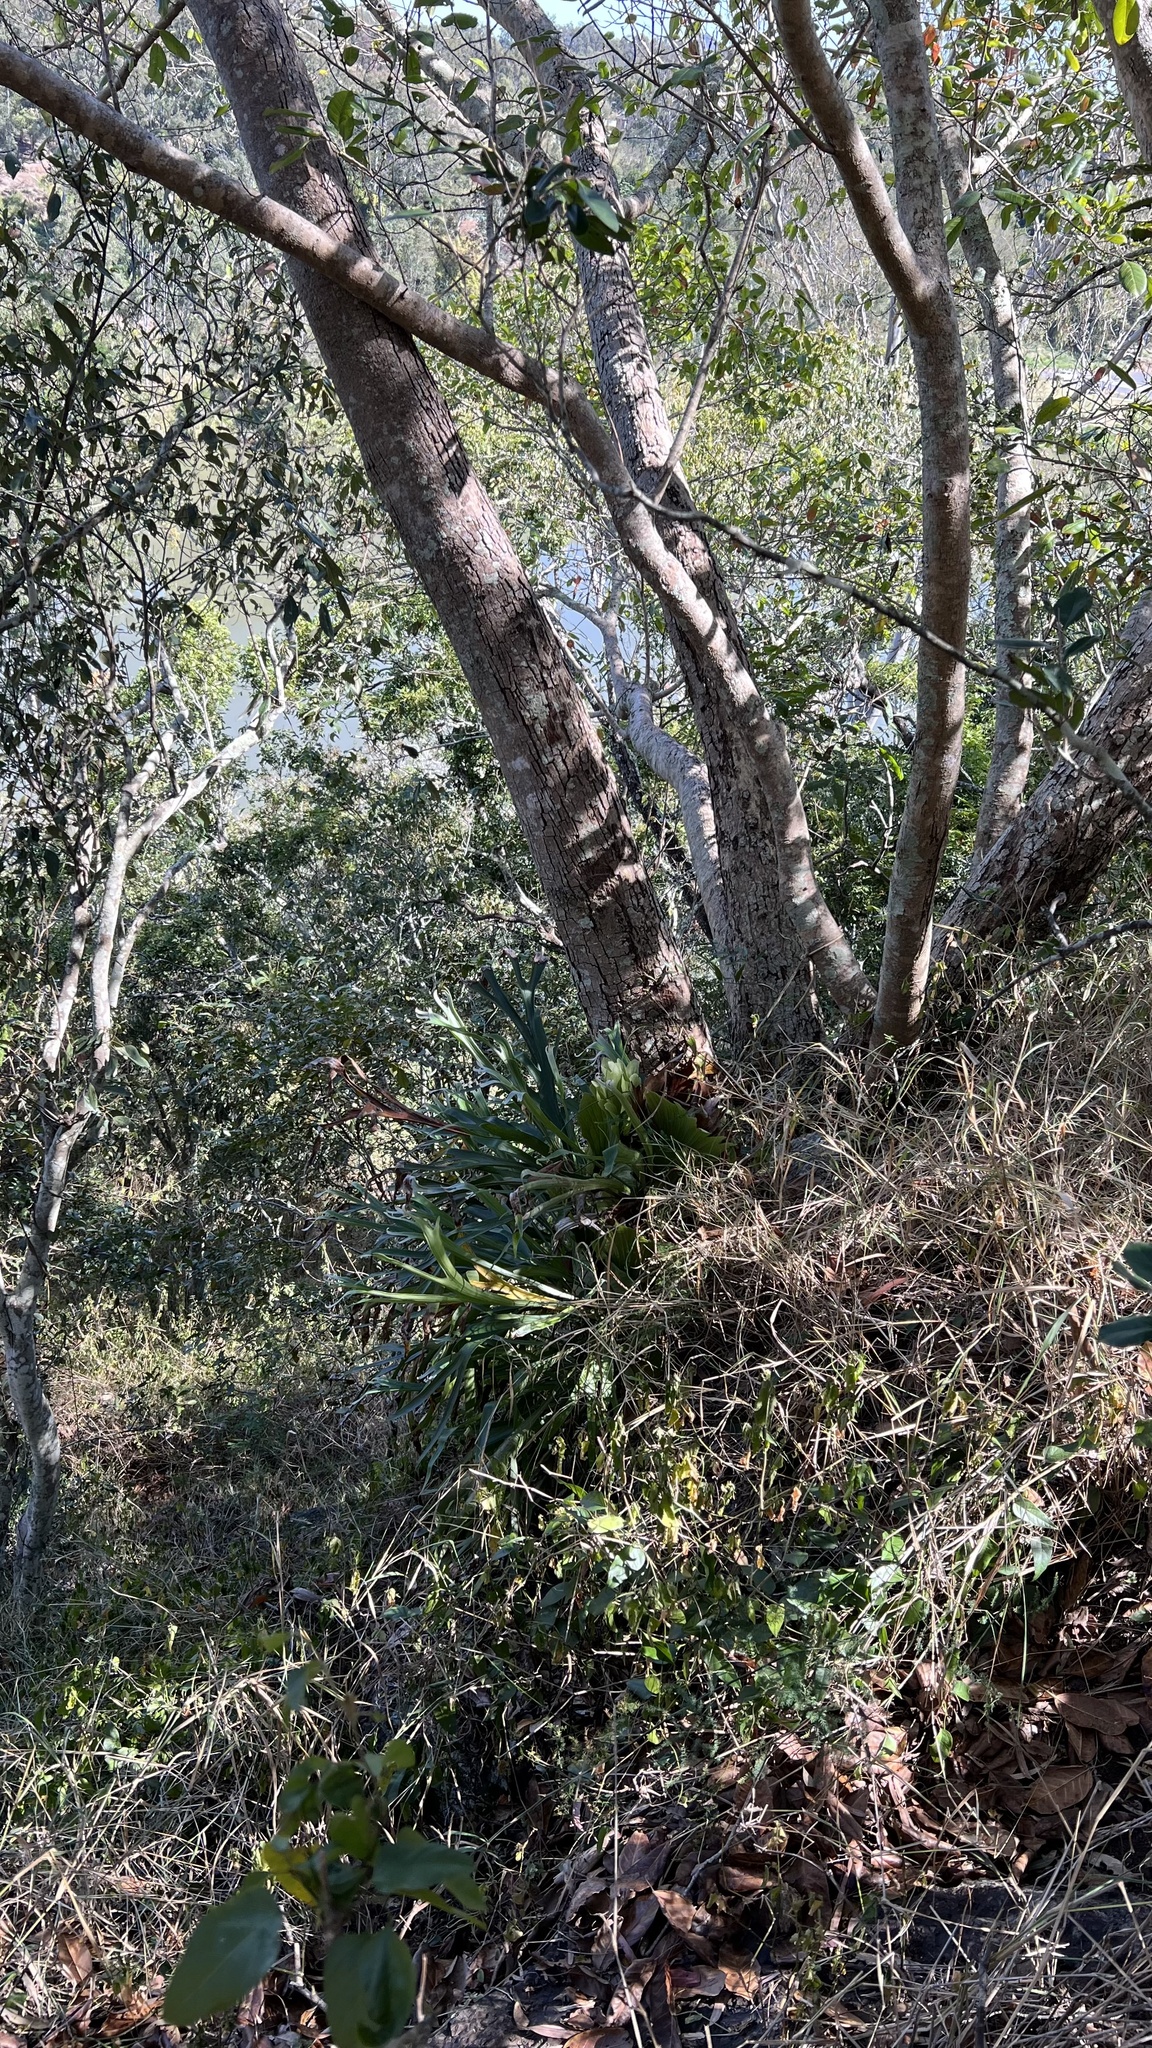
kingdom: Plantae
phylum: Tracheophyta
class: Polypodiopsida
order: Polypodiales
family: Polypodiaceae
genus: Platycerium
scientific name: Platycerium bifurcatum
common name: Elkhorn fern
